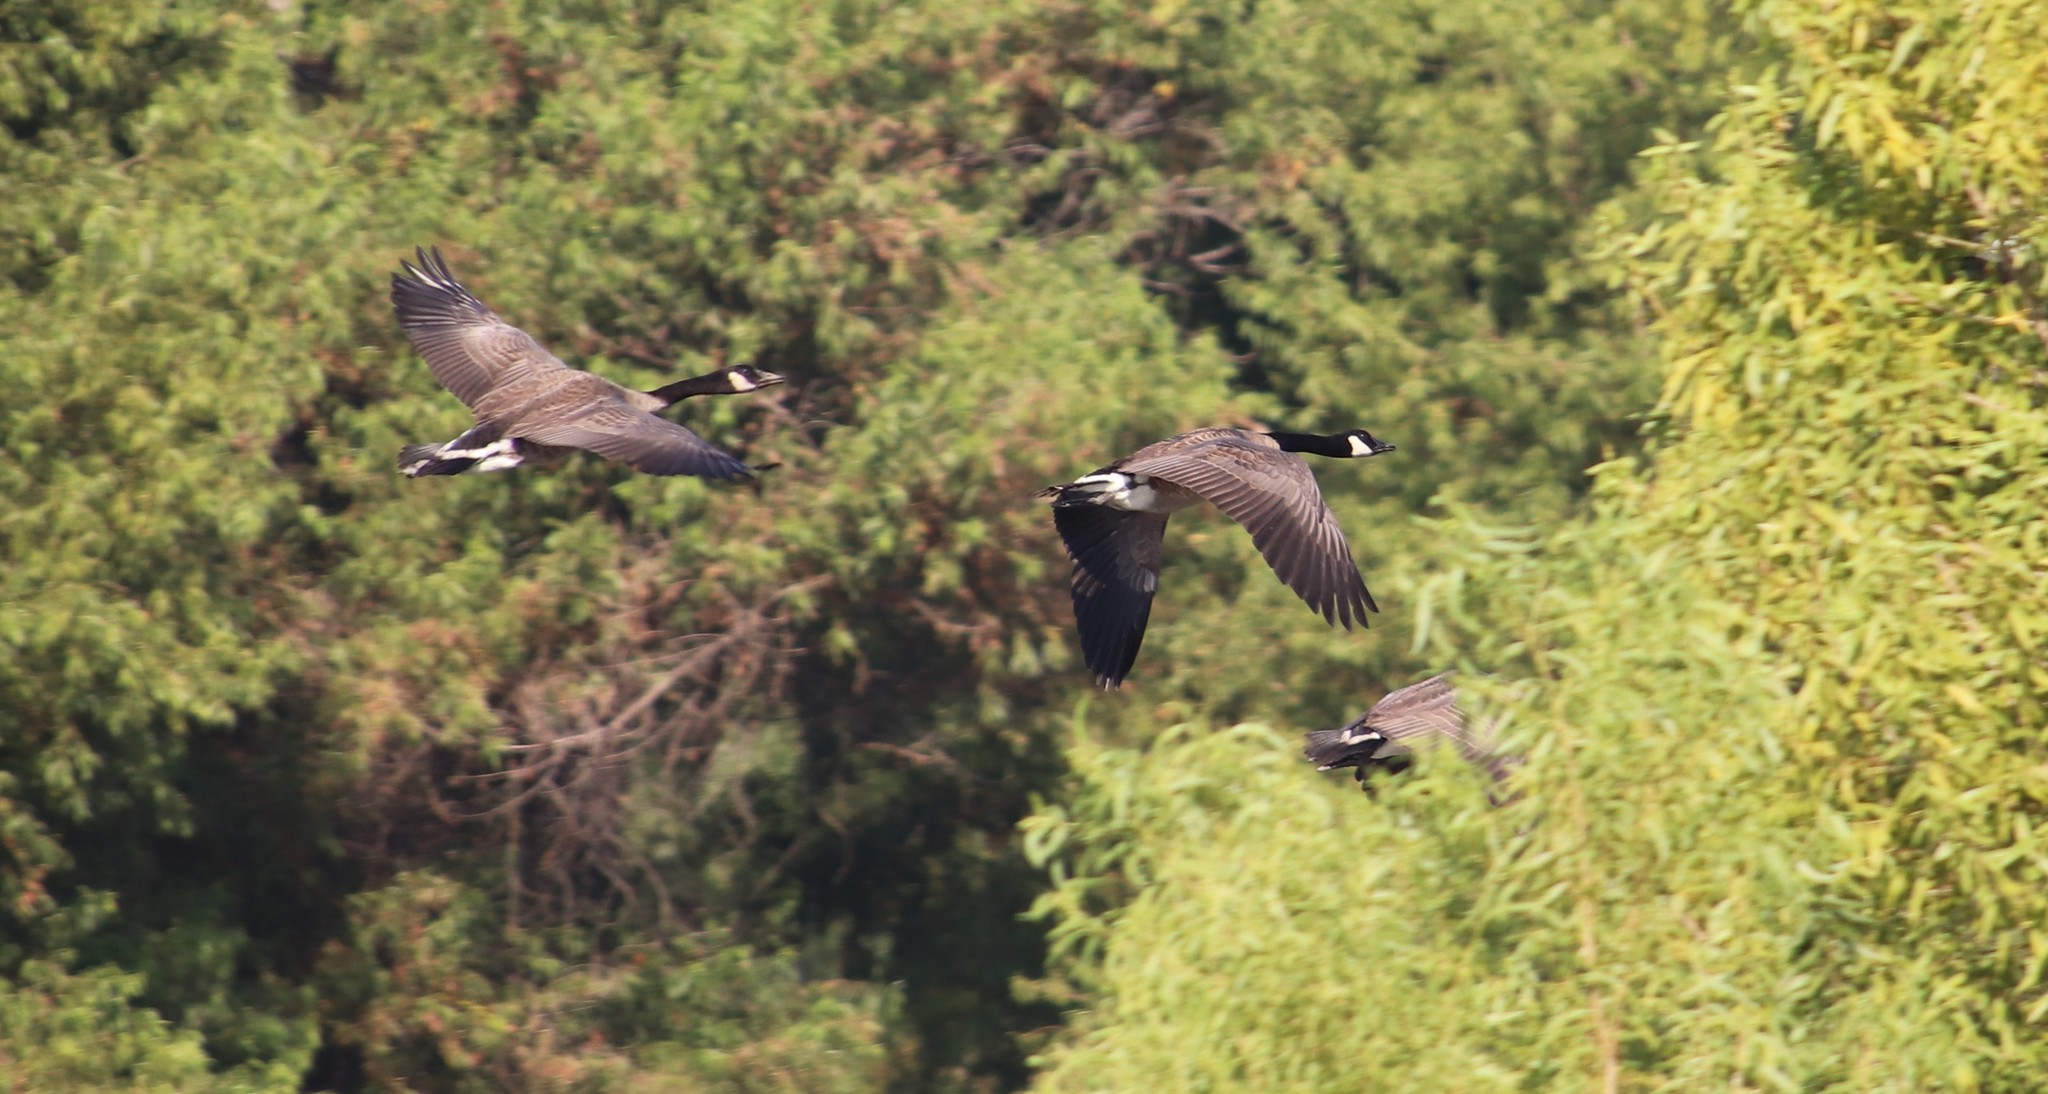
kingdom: Animalia
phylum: Chordata
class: Aves
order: Anseriformes
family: Anatidae
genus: Branta
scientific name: Branta canadensis
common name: Canada goose
